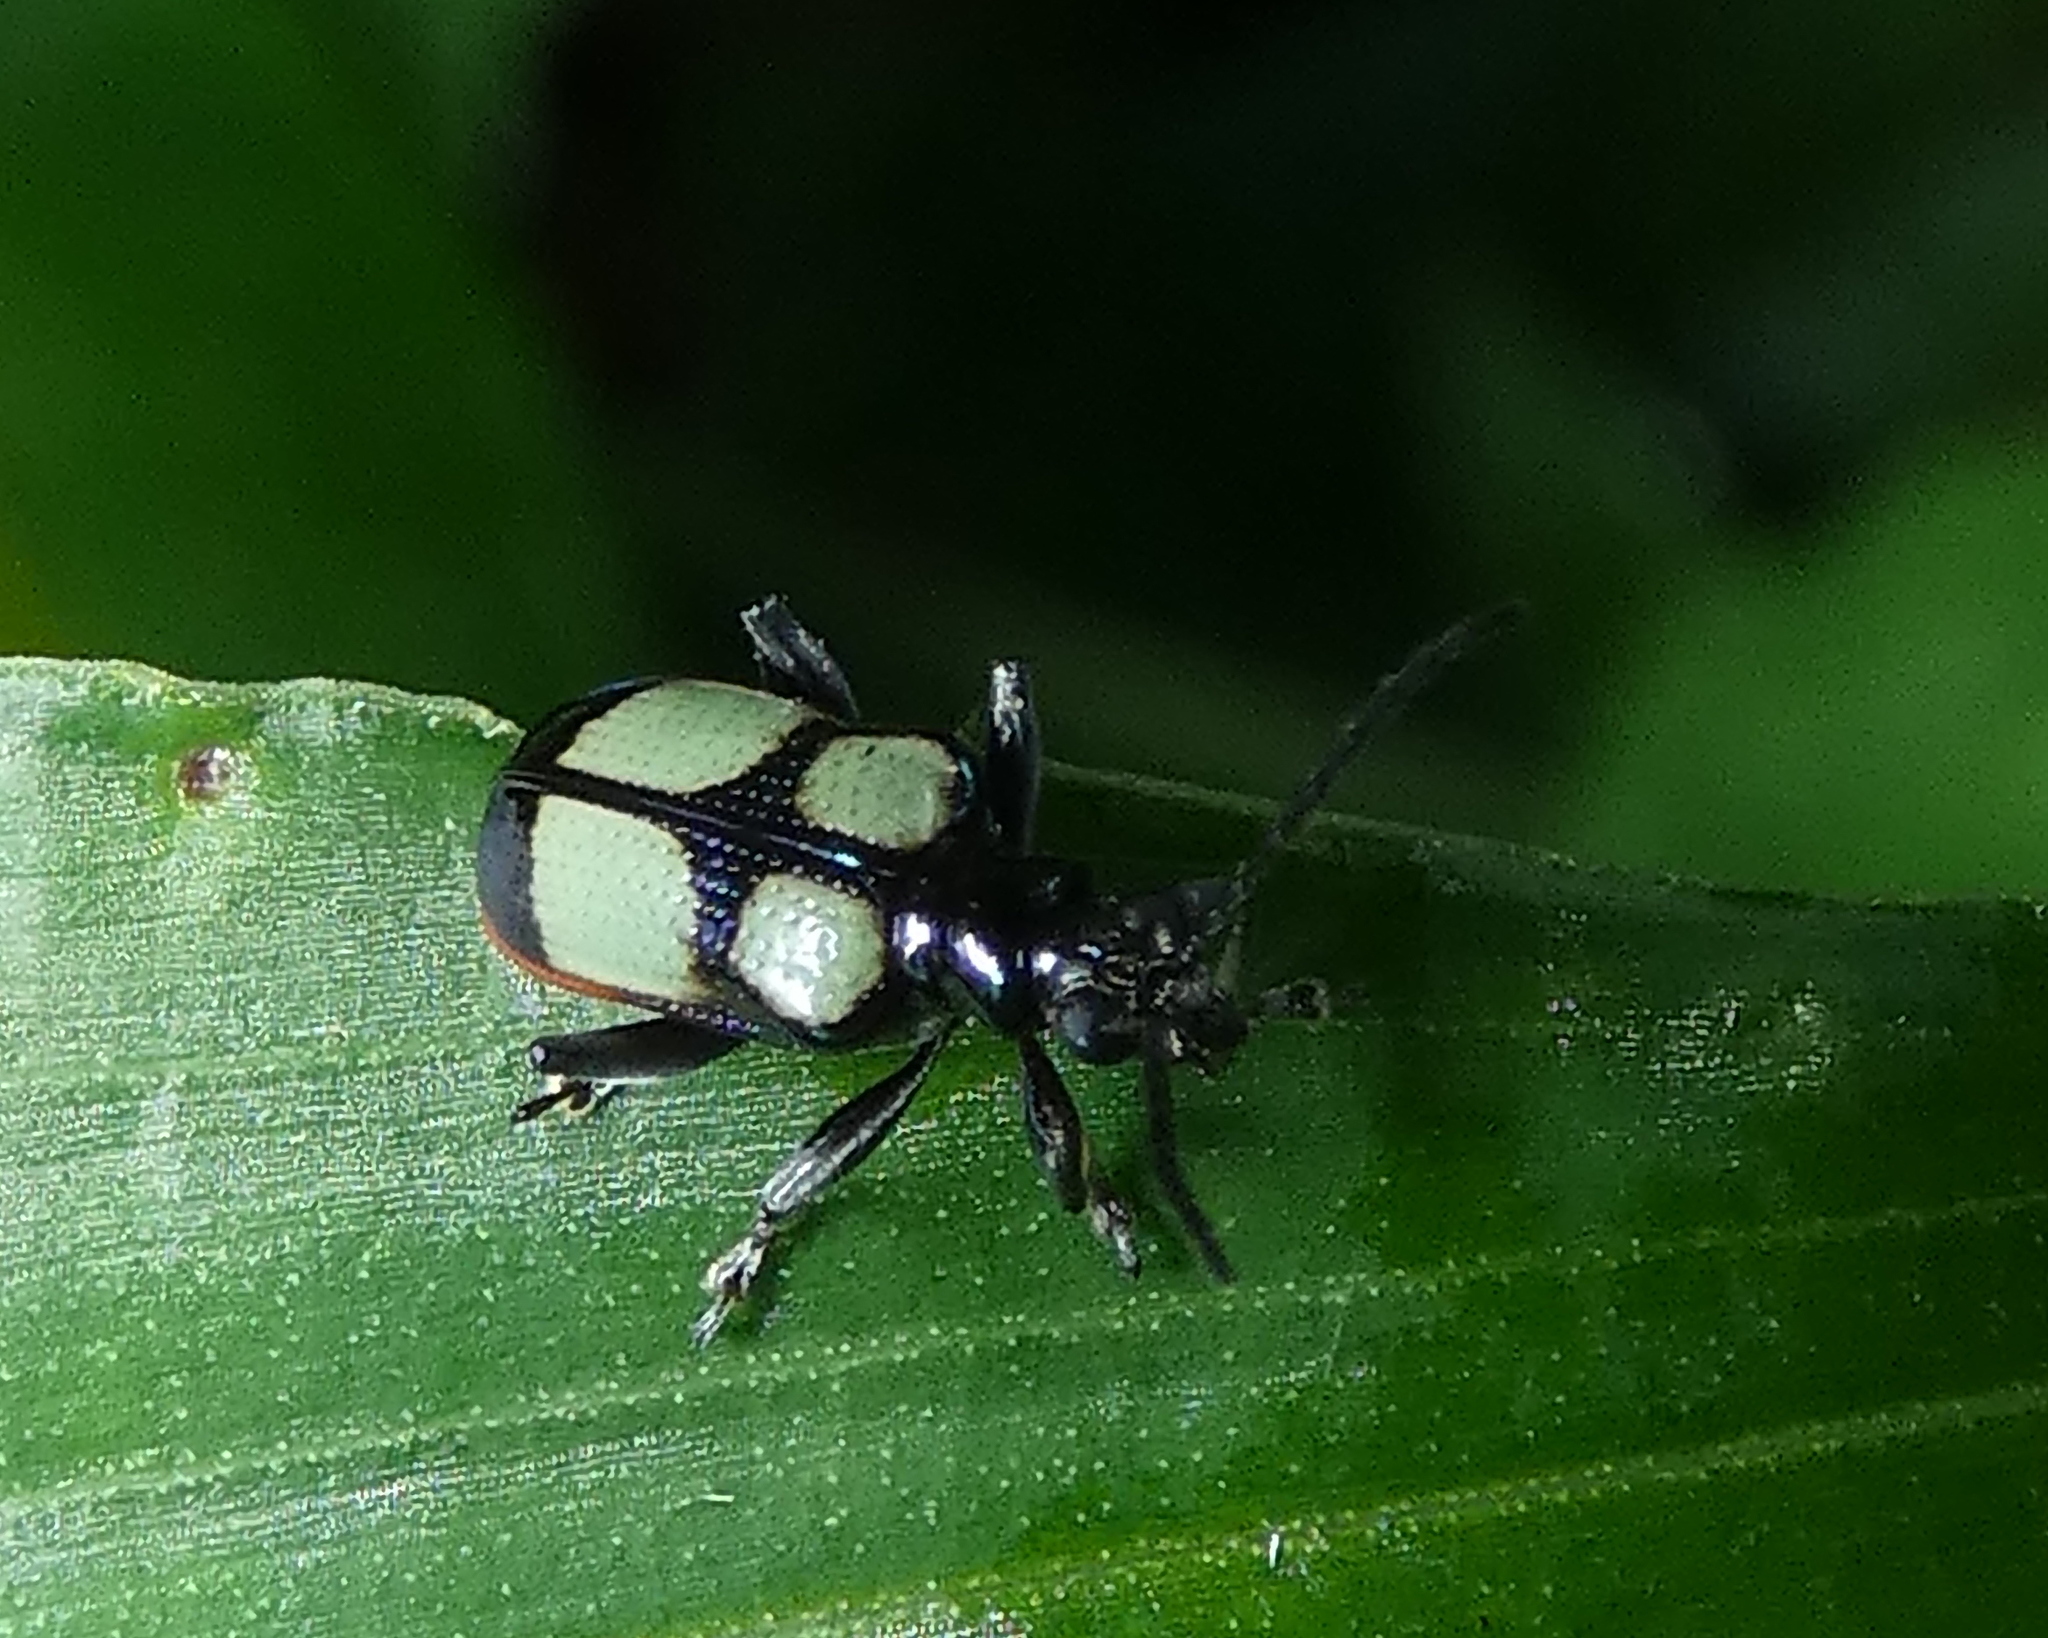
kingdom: Animalia
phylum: Arthropoda
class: Insecta
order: Coleoptera
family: Chrysomelidae
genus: Neolema
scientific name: Neolema
